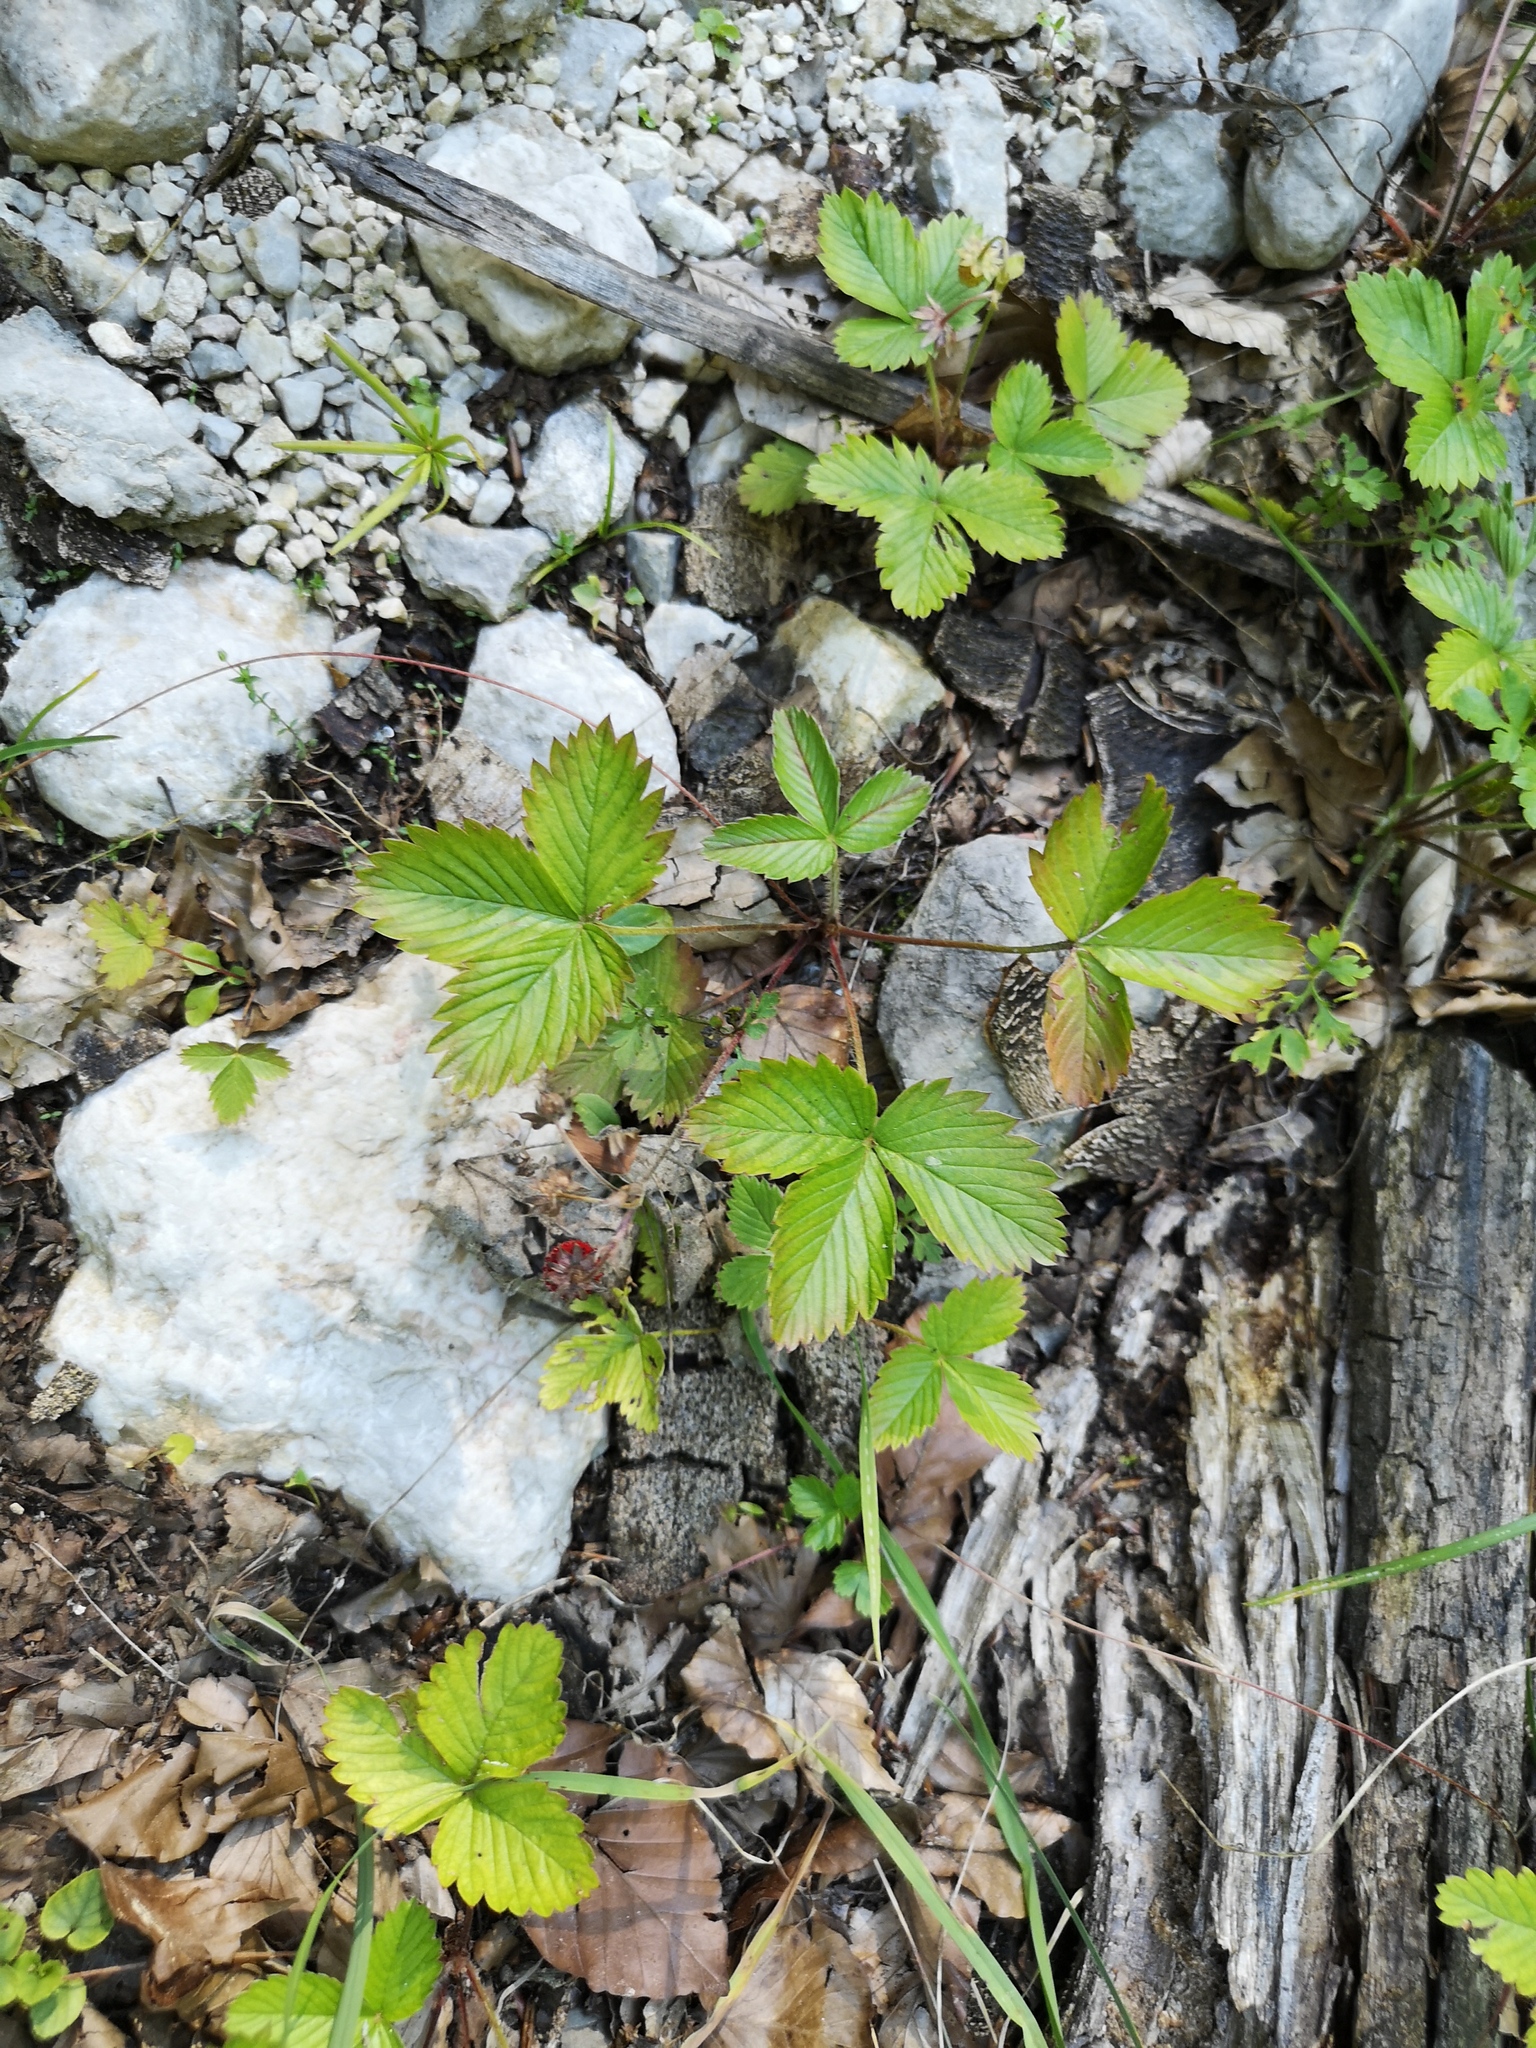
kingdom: Plantae
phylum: Tracheophyta
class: Magnoliopsida
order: Rosales
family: Rosaceae
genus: Fragaria
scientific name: Fragaria vesca
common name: Wild strawberry
